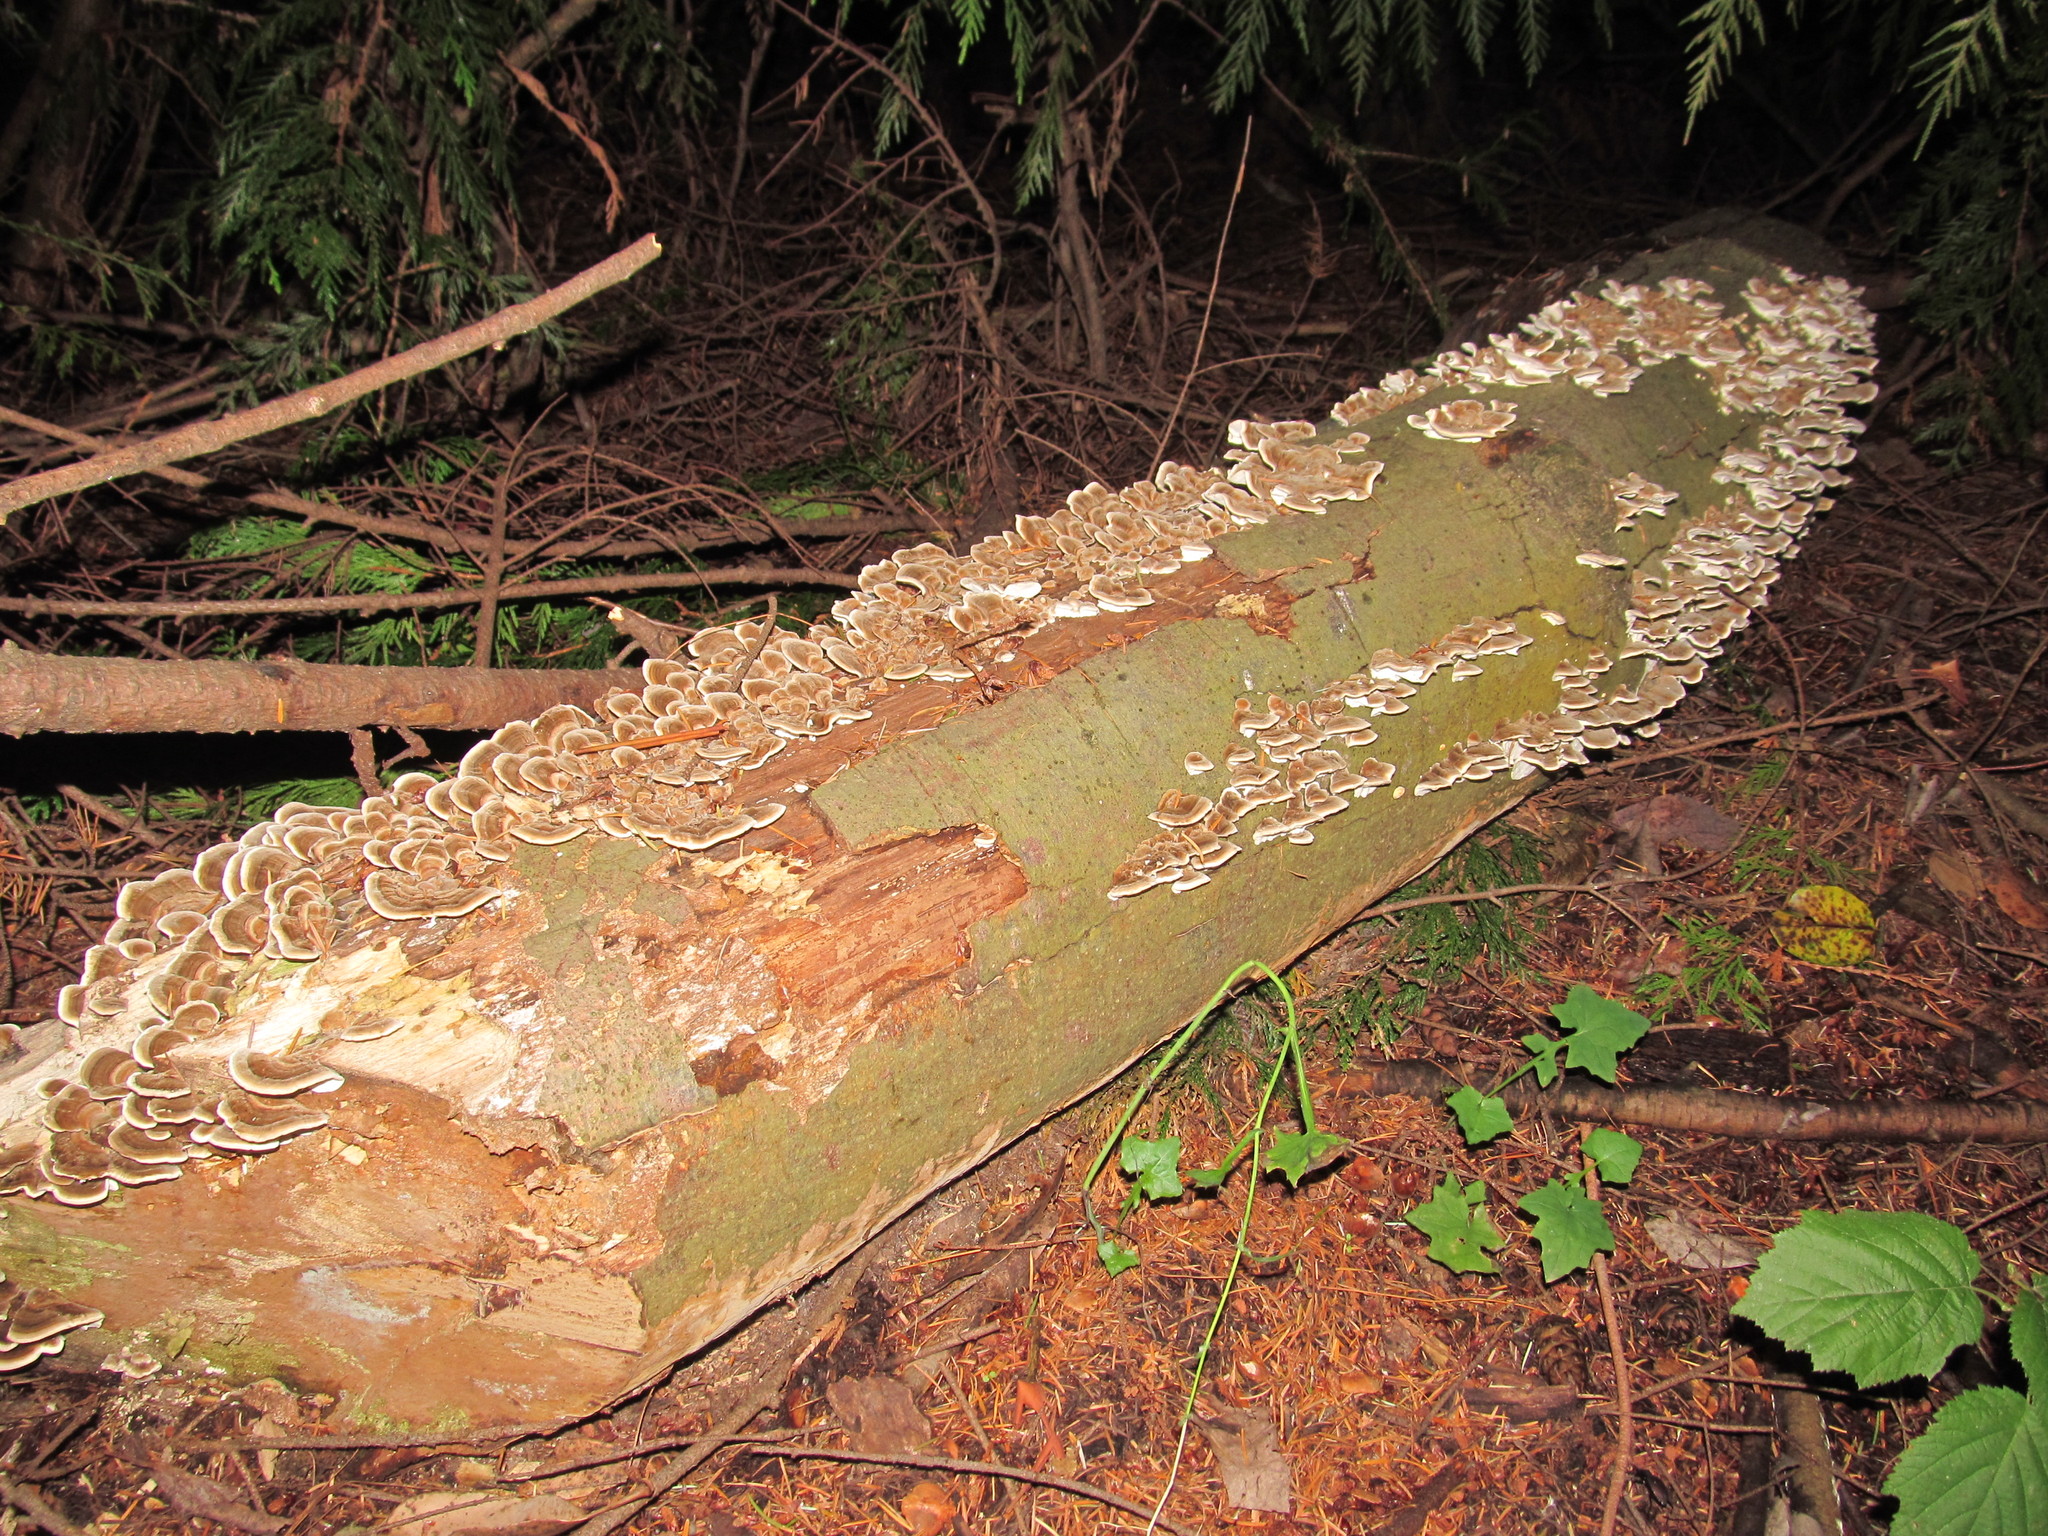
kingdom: Fungi
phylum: Basidiomycota
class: Agaricomycetes
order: Polyporales
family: Polyporaceae
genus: Trametes
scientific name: Trametes versicolor
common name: Turkeytail
